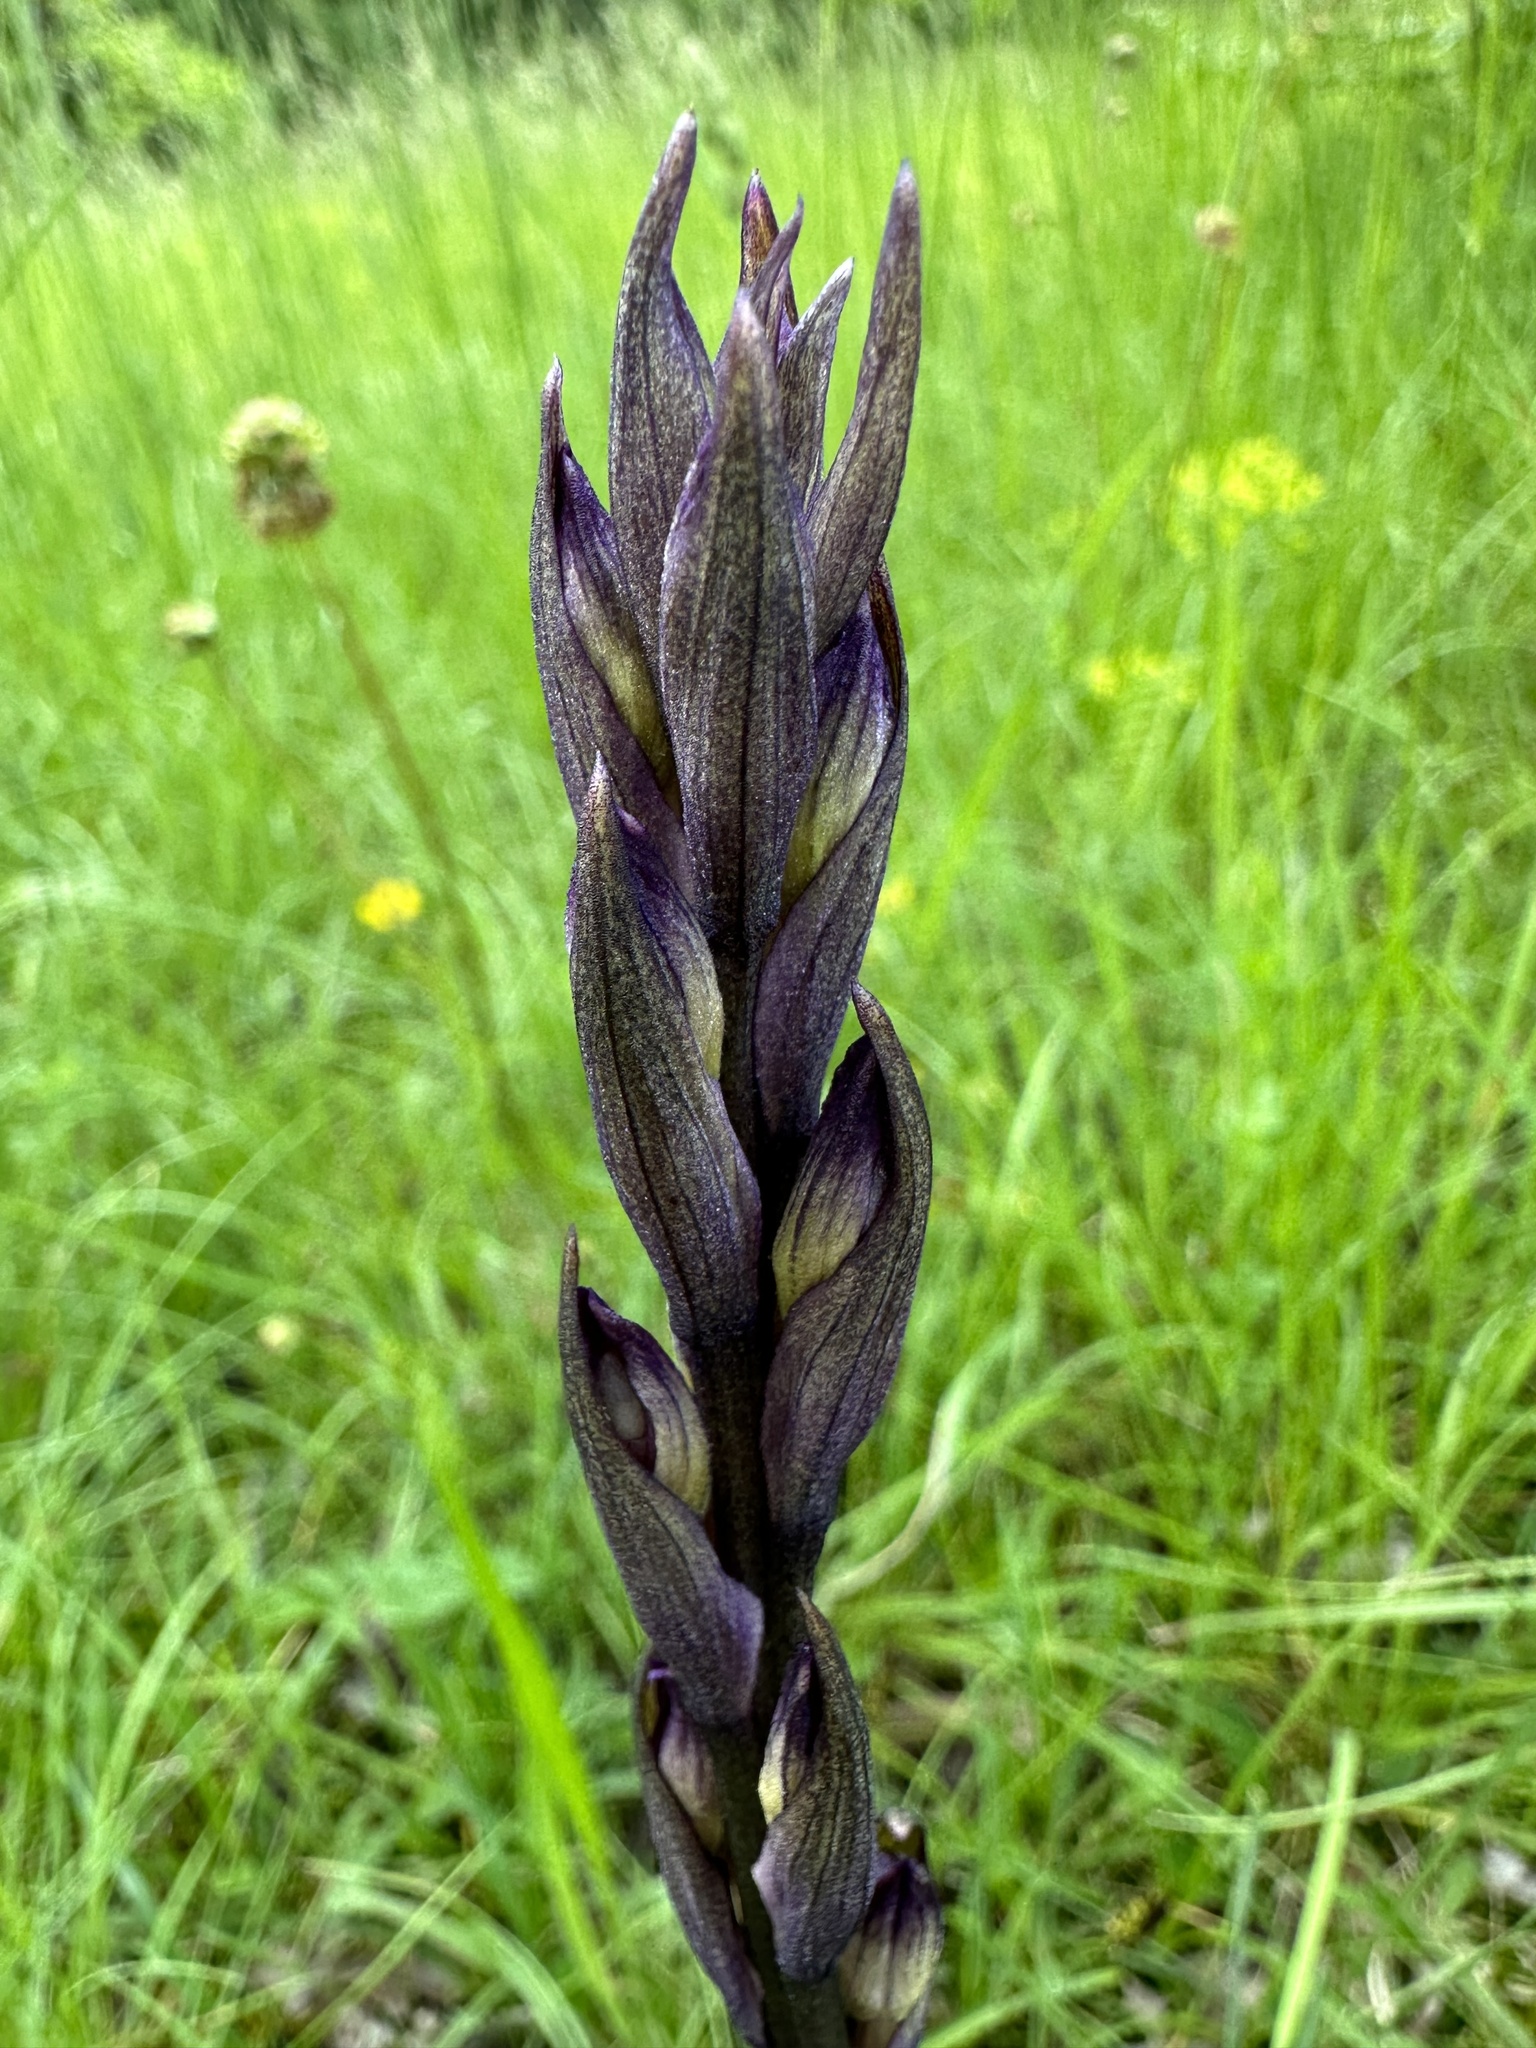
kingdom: Plantae
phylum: Tracheophyta
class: Liliopsida
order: Asparagales
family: Orchidaceae
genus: Limodorum
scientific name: Limodorum abortivum
